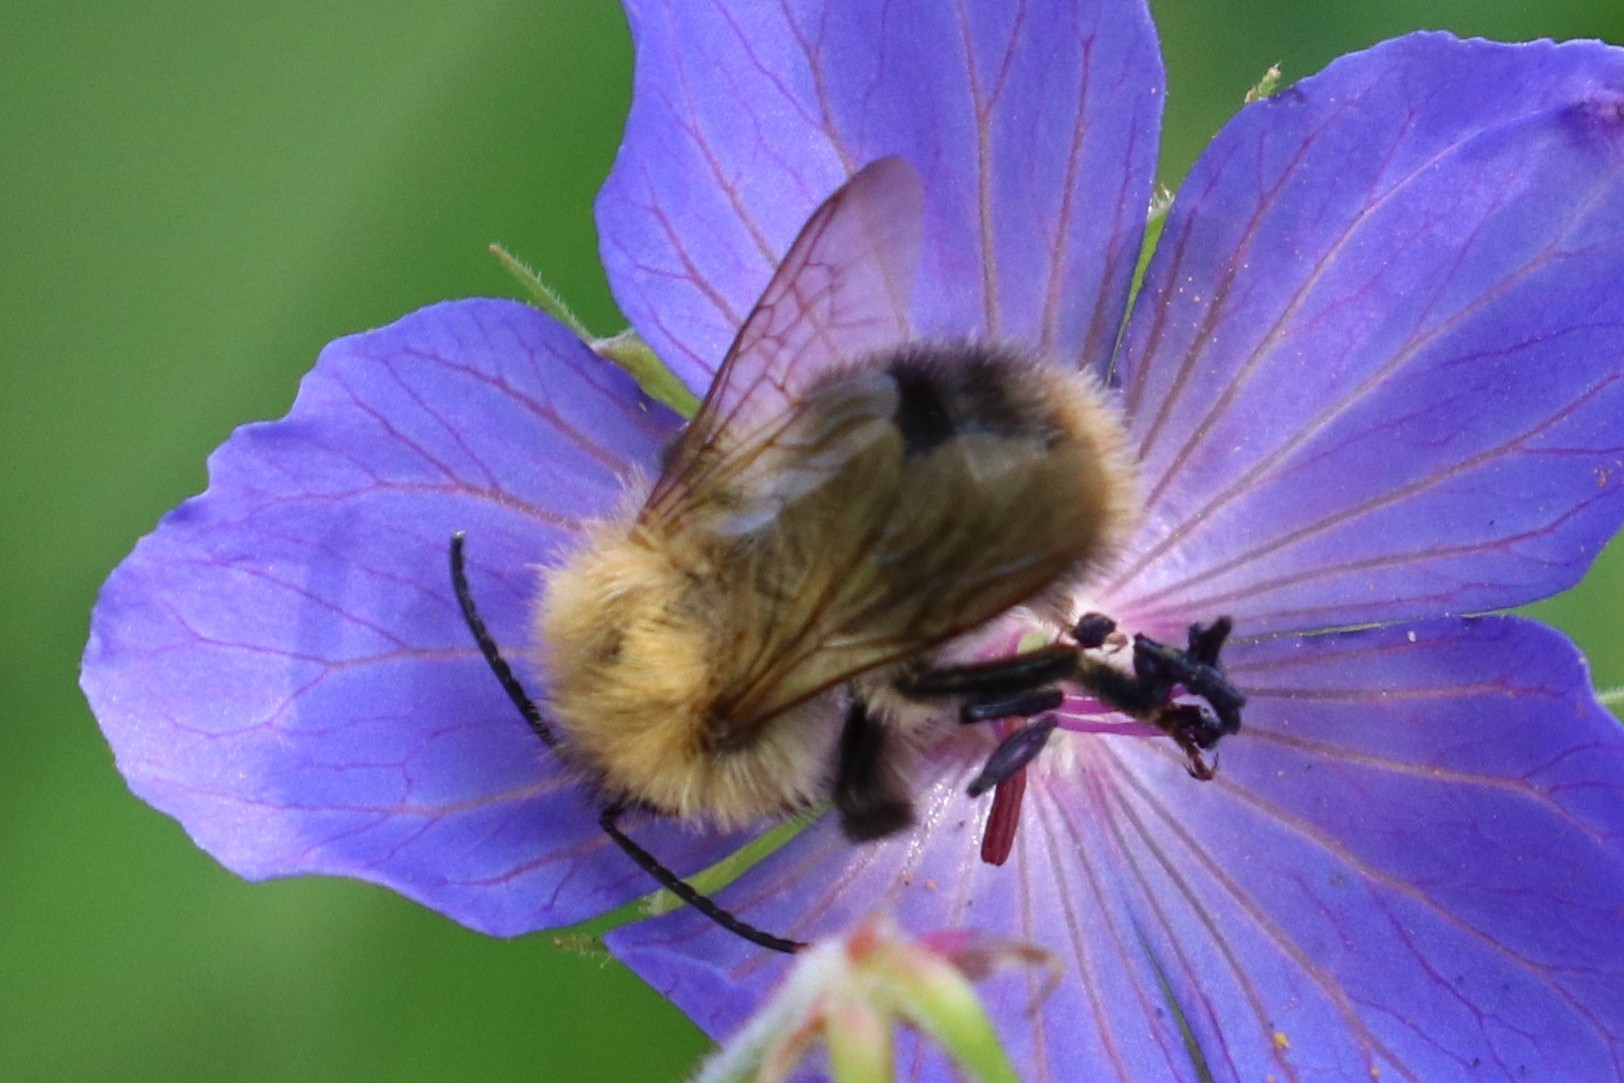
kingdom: Animalia
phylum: Arthropoda
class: Insecta
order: Hymenoptera
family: Apidae
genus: Bombus
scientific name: Bombus pascuorum
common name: Common carder bee
